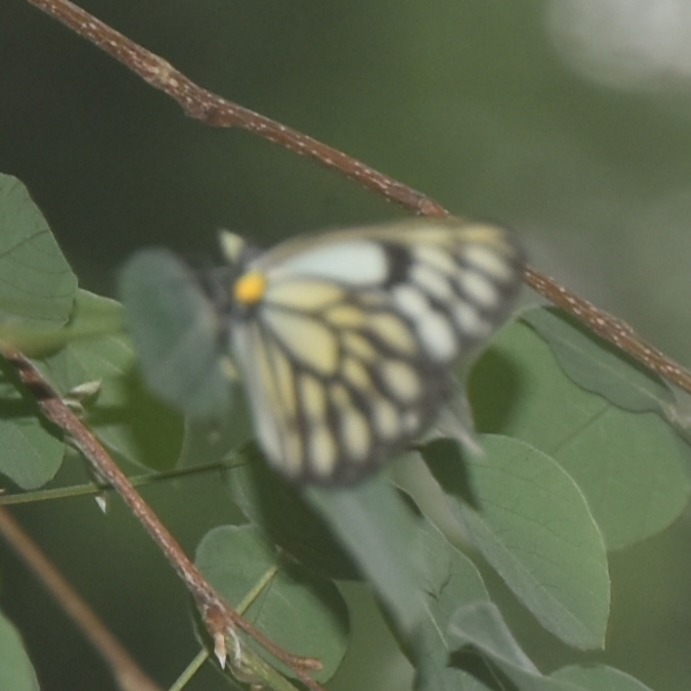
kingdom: Animalia
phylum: Arthropoda
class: Insecta
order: Lepidoptera
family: Pieridae
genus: Aporia
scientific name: Aporia agathon
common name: Great blackvein
